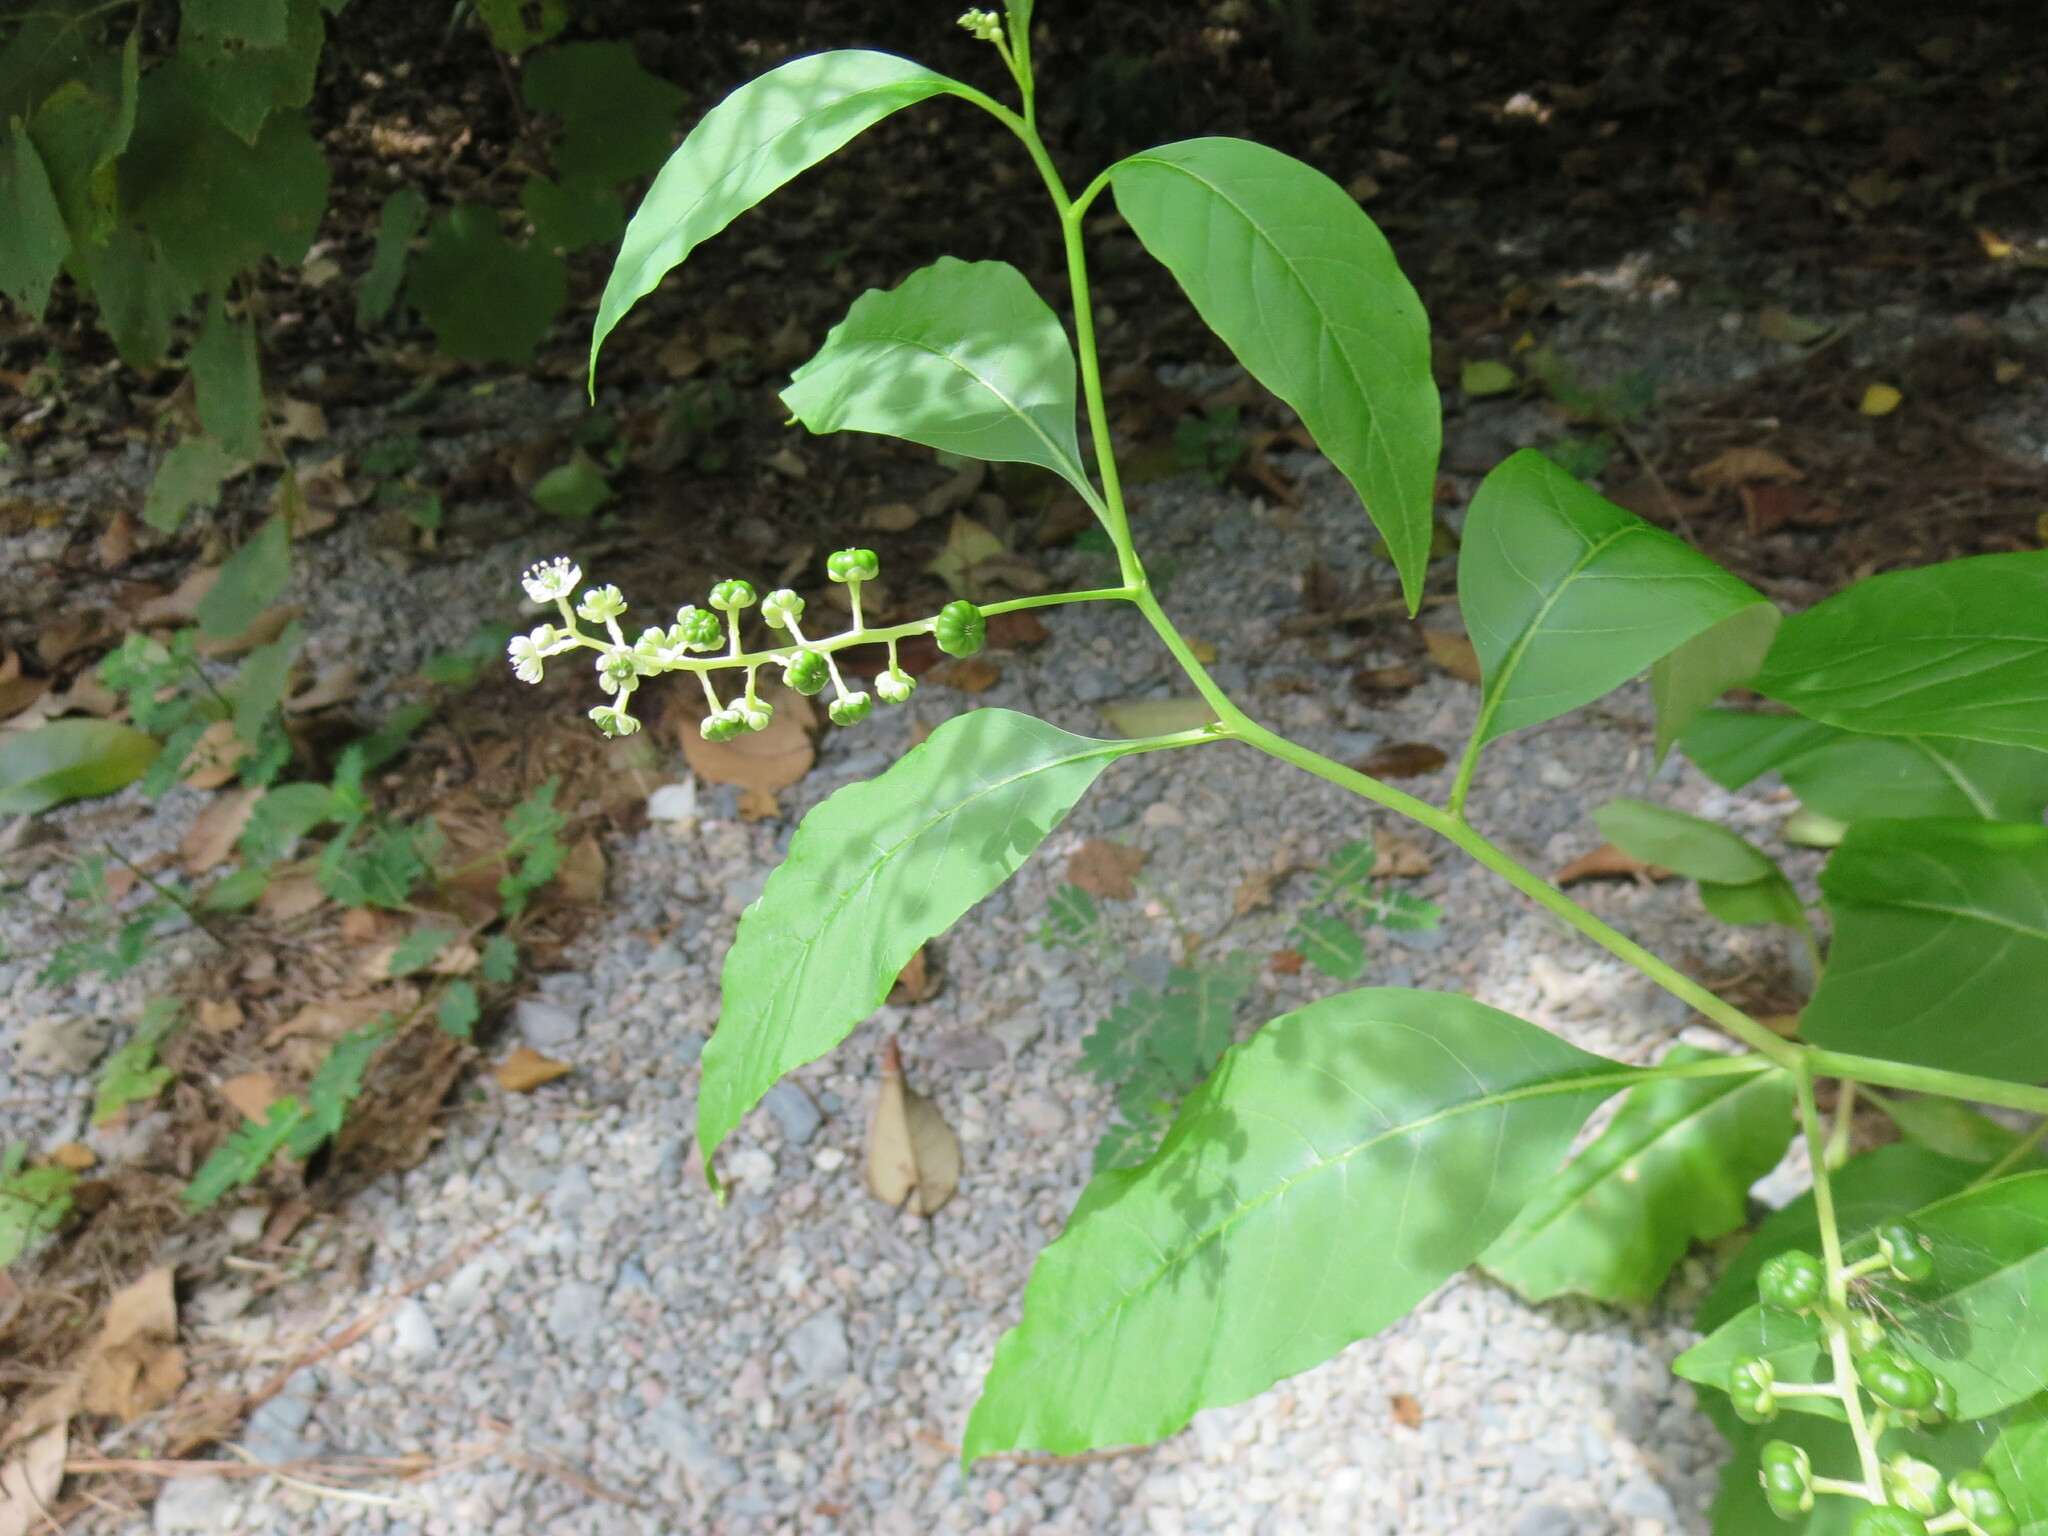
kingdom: Plantae
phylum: Tracheophyta
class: Magnoliopsida
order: Caryophyllales
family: Phytolaccaceae
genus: Phytolacca
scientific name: Phytolacca americana
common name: American pokeweed
